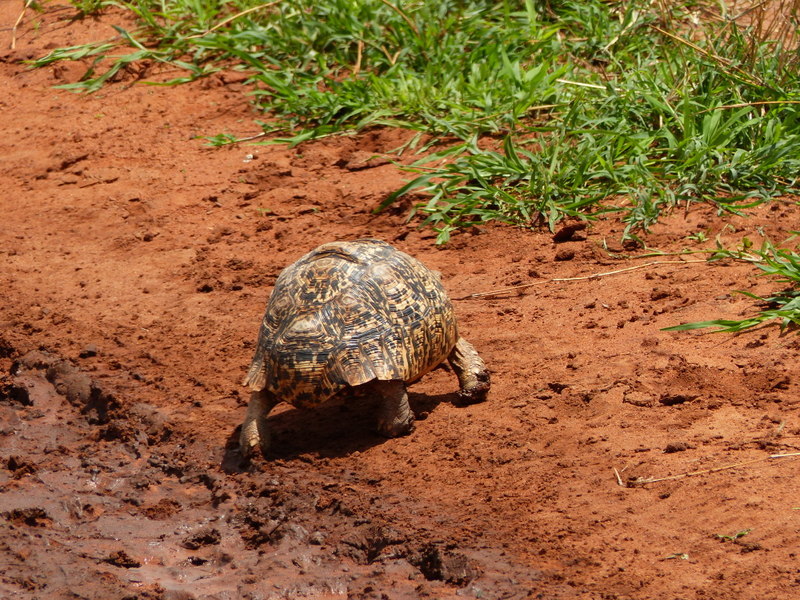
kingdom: Animalia
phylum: Chordata
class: Testudines
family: Testudinidae
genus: Stigmochelys
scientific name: Stigmochelys pardalis
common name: Leopard tortoise
